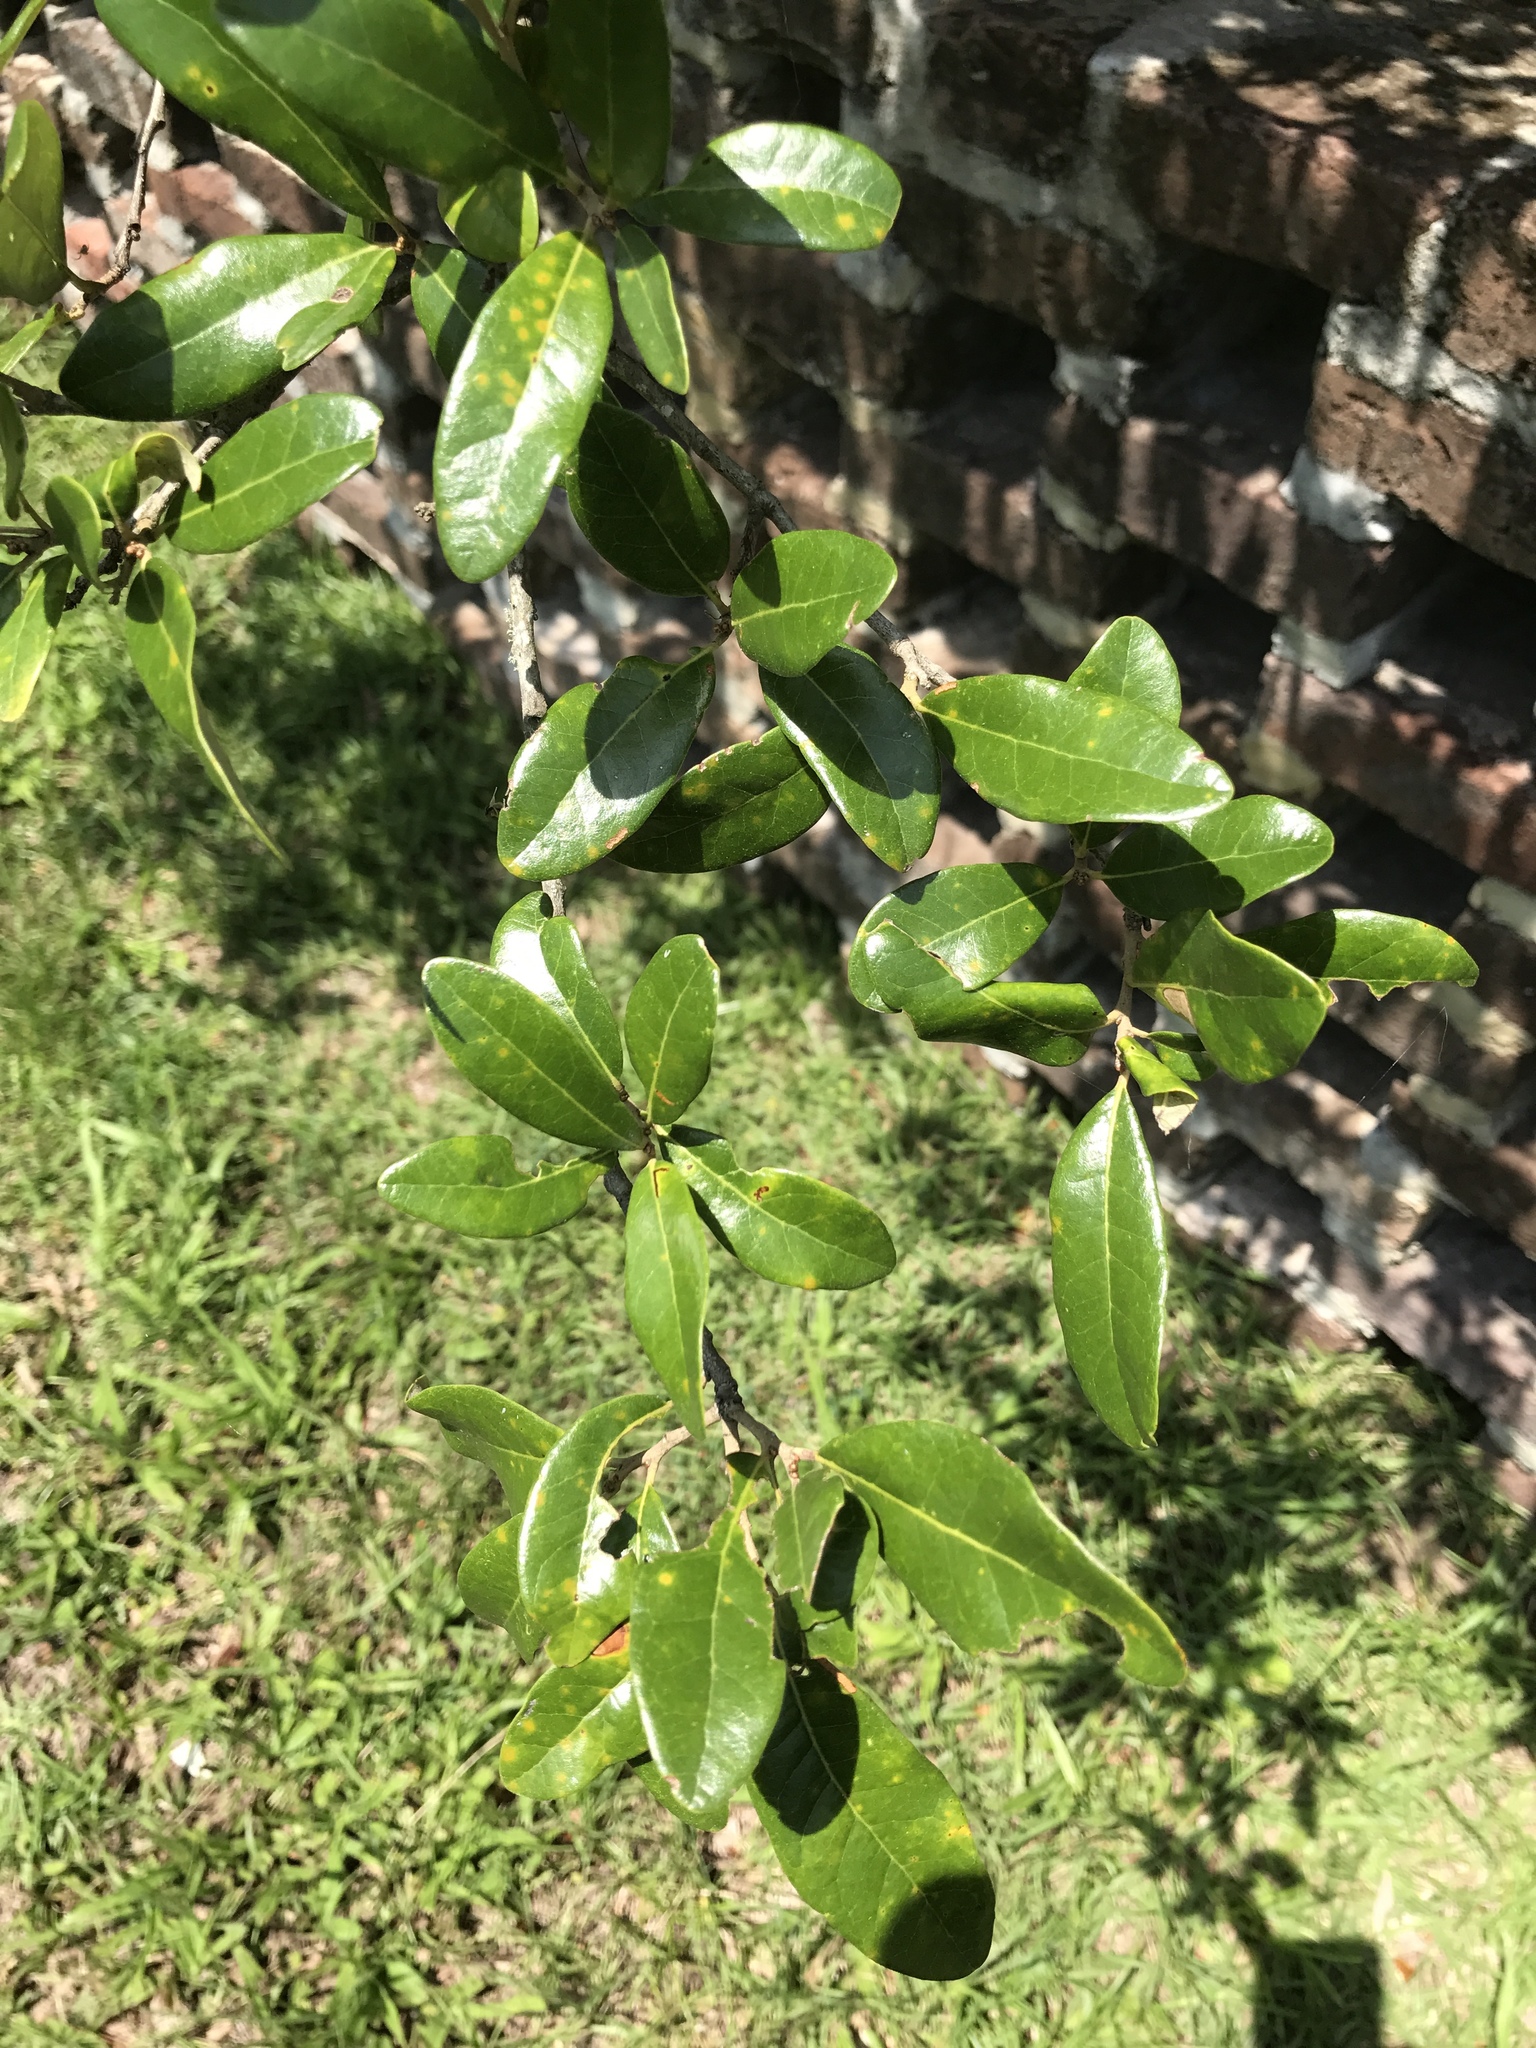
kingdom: Plantae
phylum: Tracheophyta
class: Magnoliopsida
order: Fagales
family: Fagaceae
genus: Quercus
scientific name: Quercus virginiana
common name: Southern live oak
